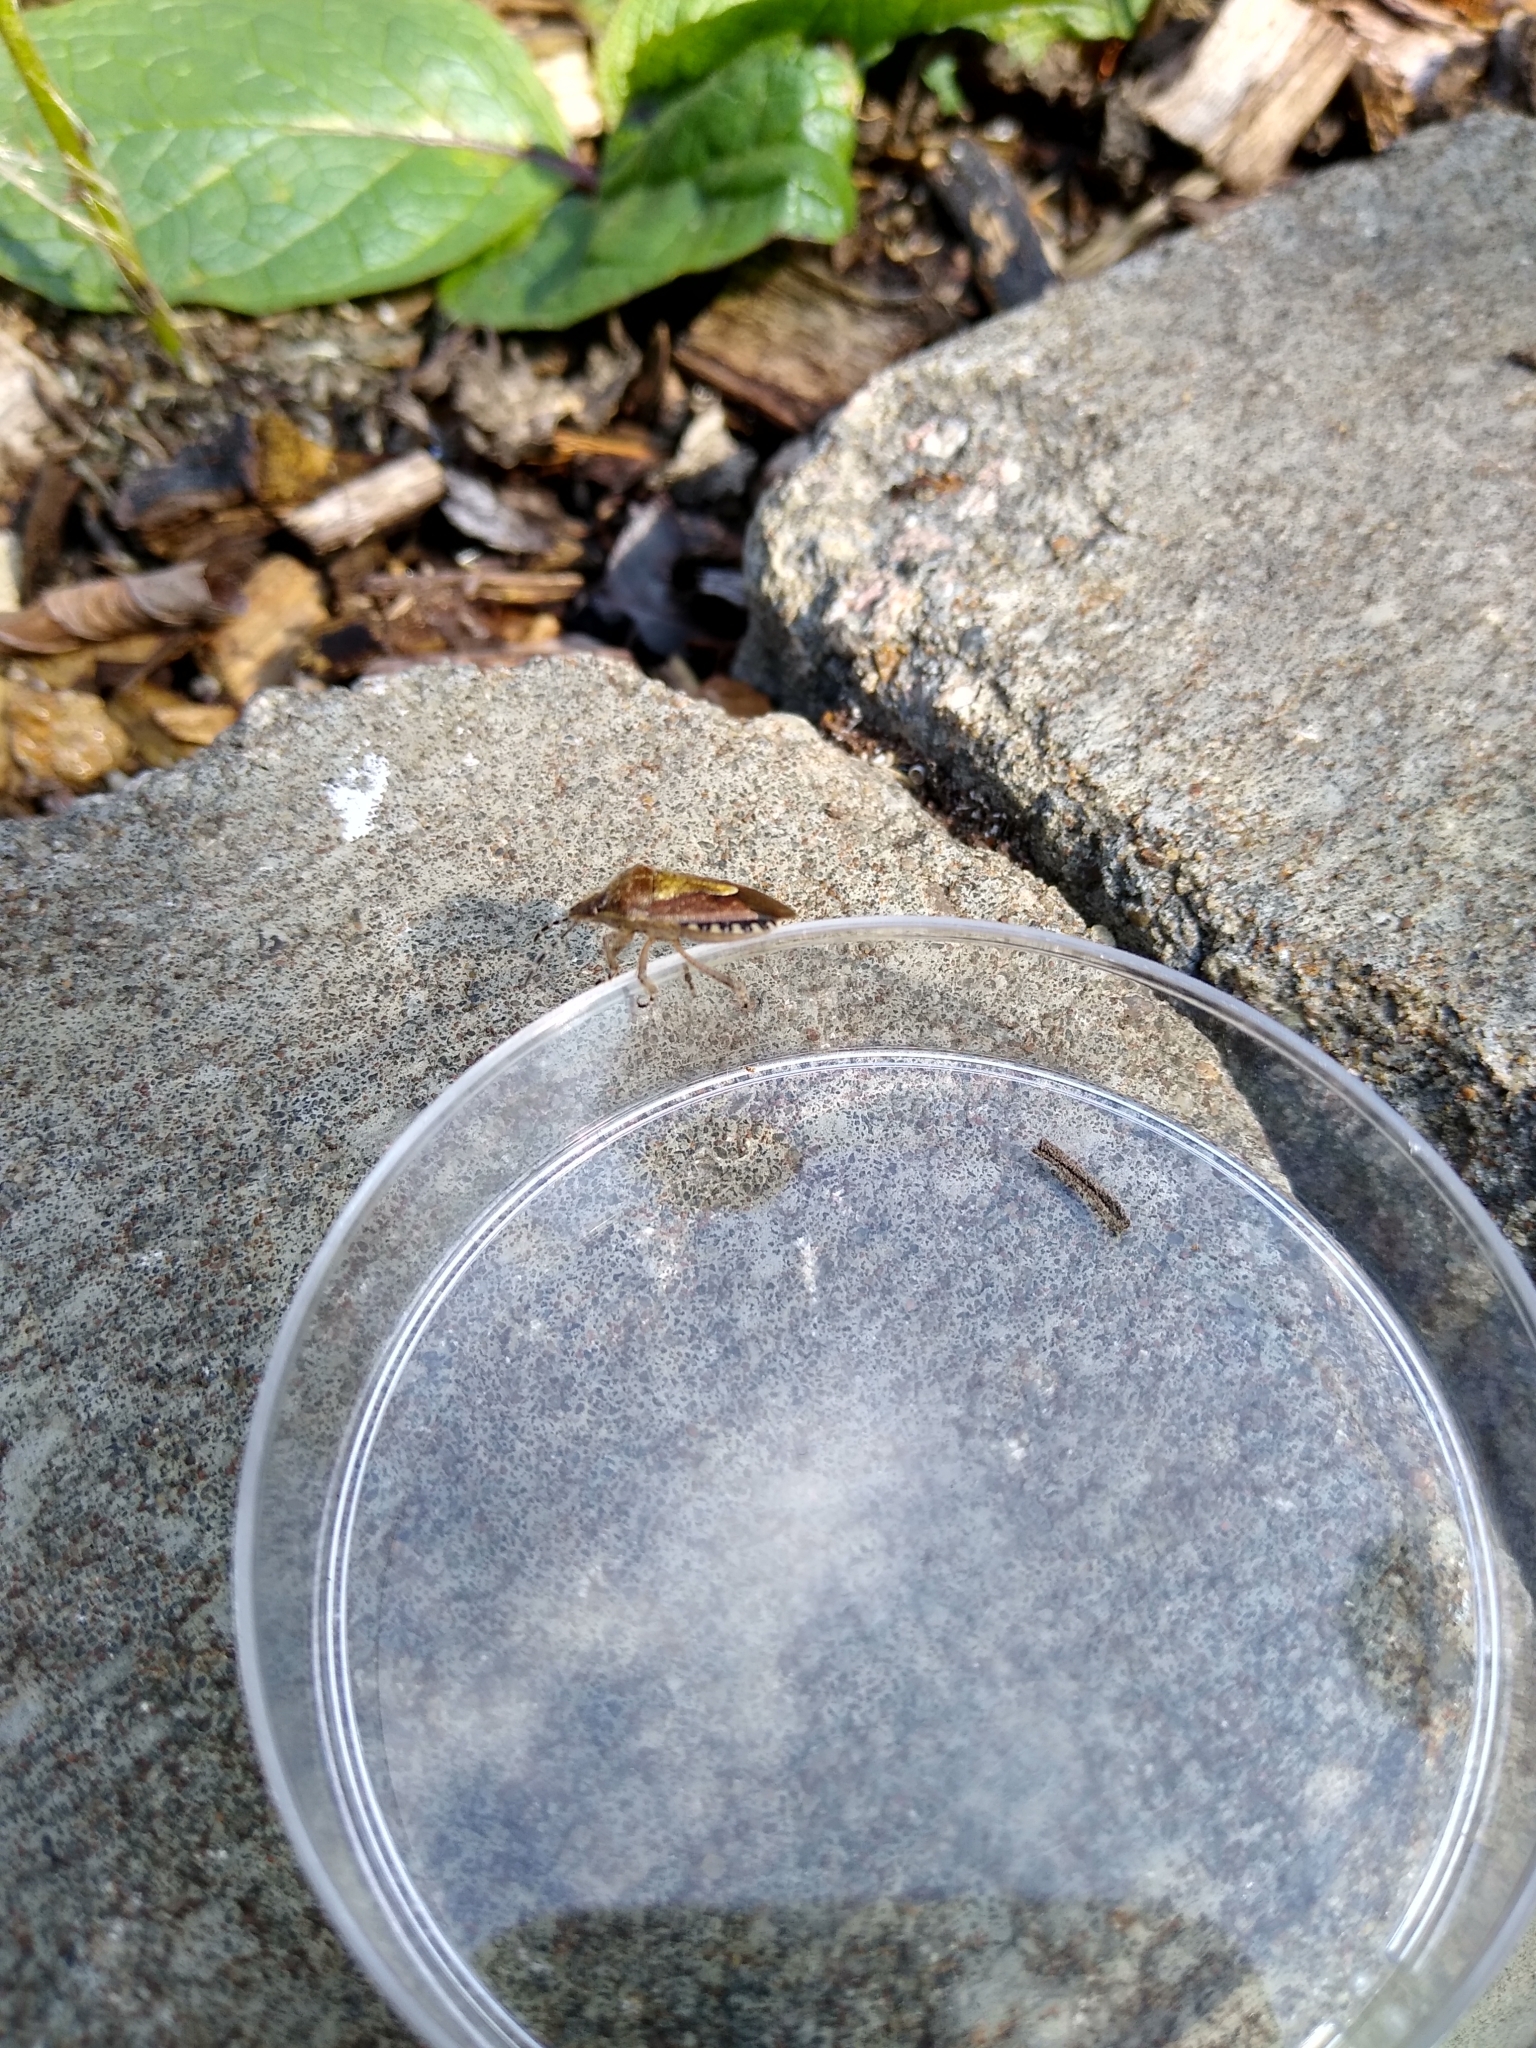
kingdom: Animalia
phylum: Arthropoda
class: Insecta
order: Hemiptera
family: Pentatomidae
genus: Dolycoris
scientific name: Dolycoris baccarum
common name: Sloe bug
